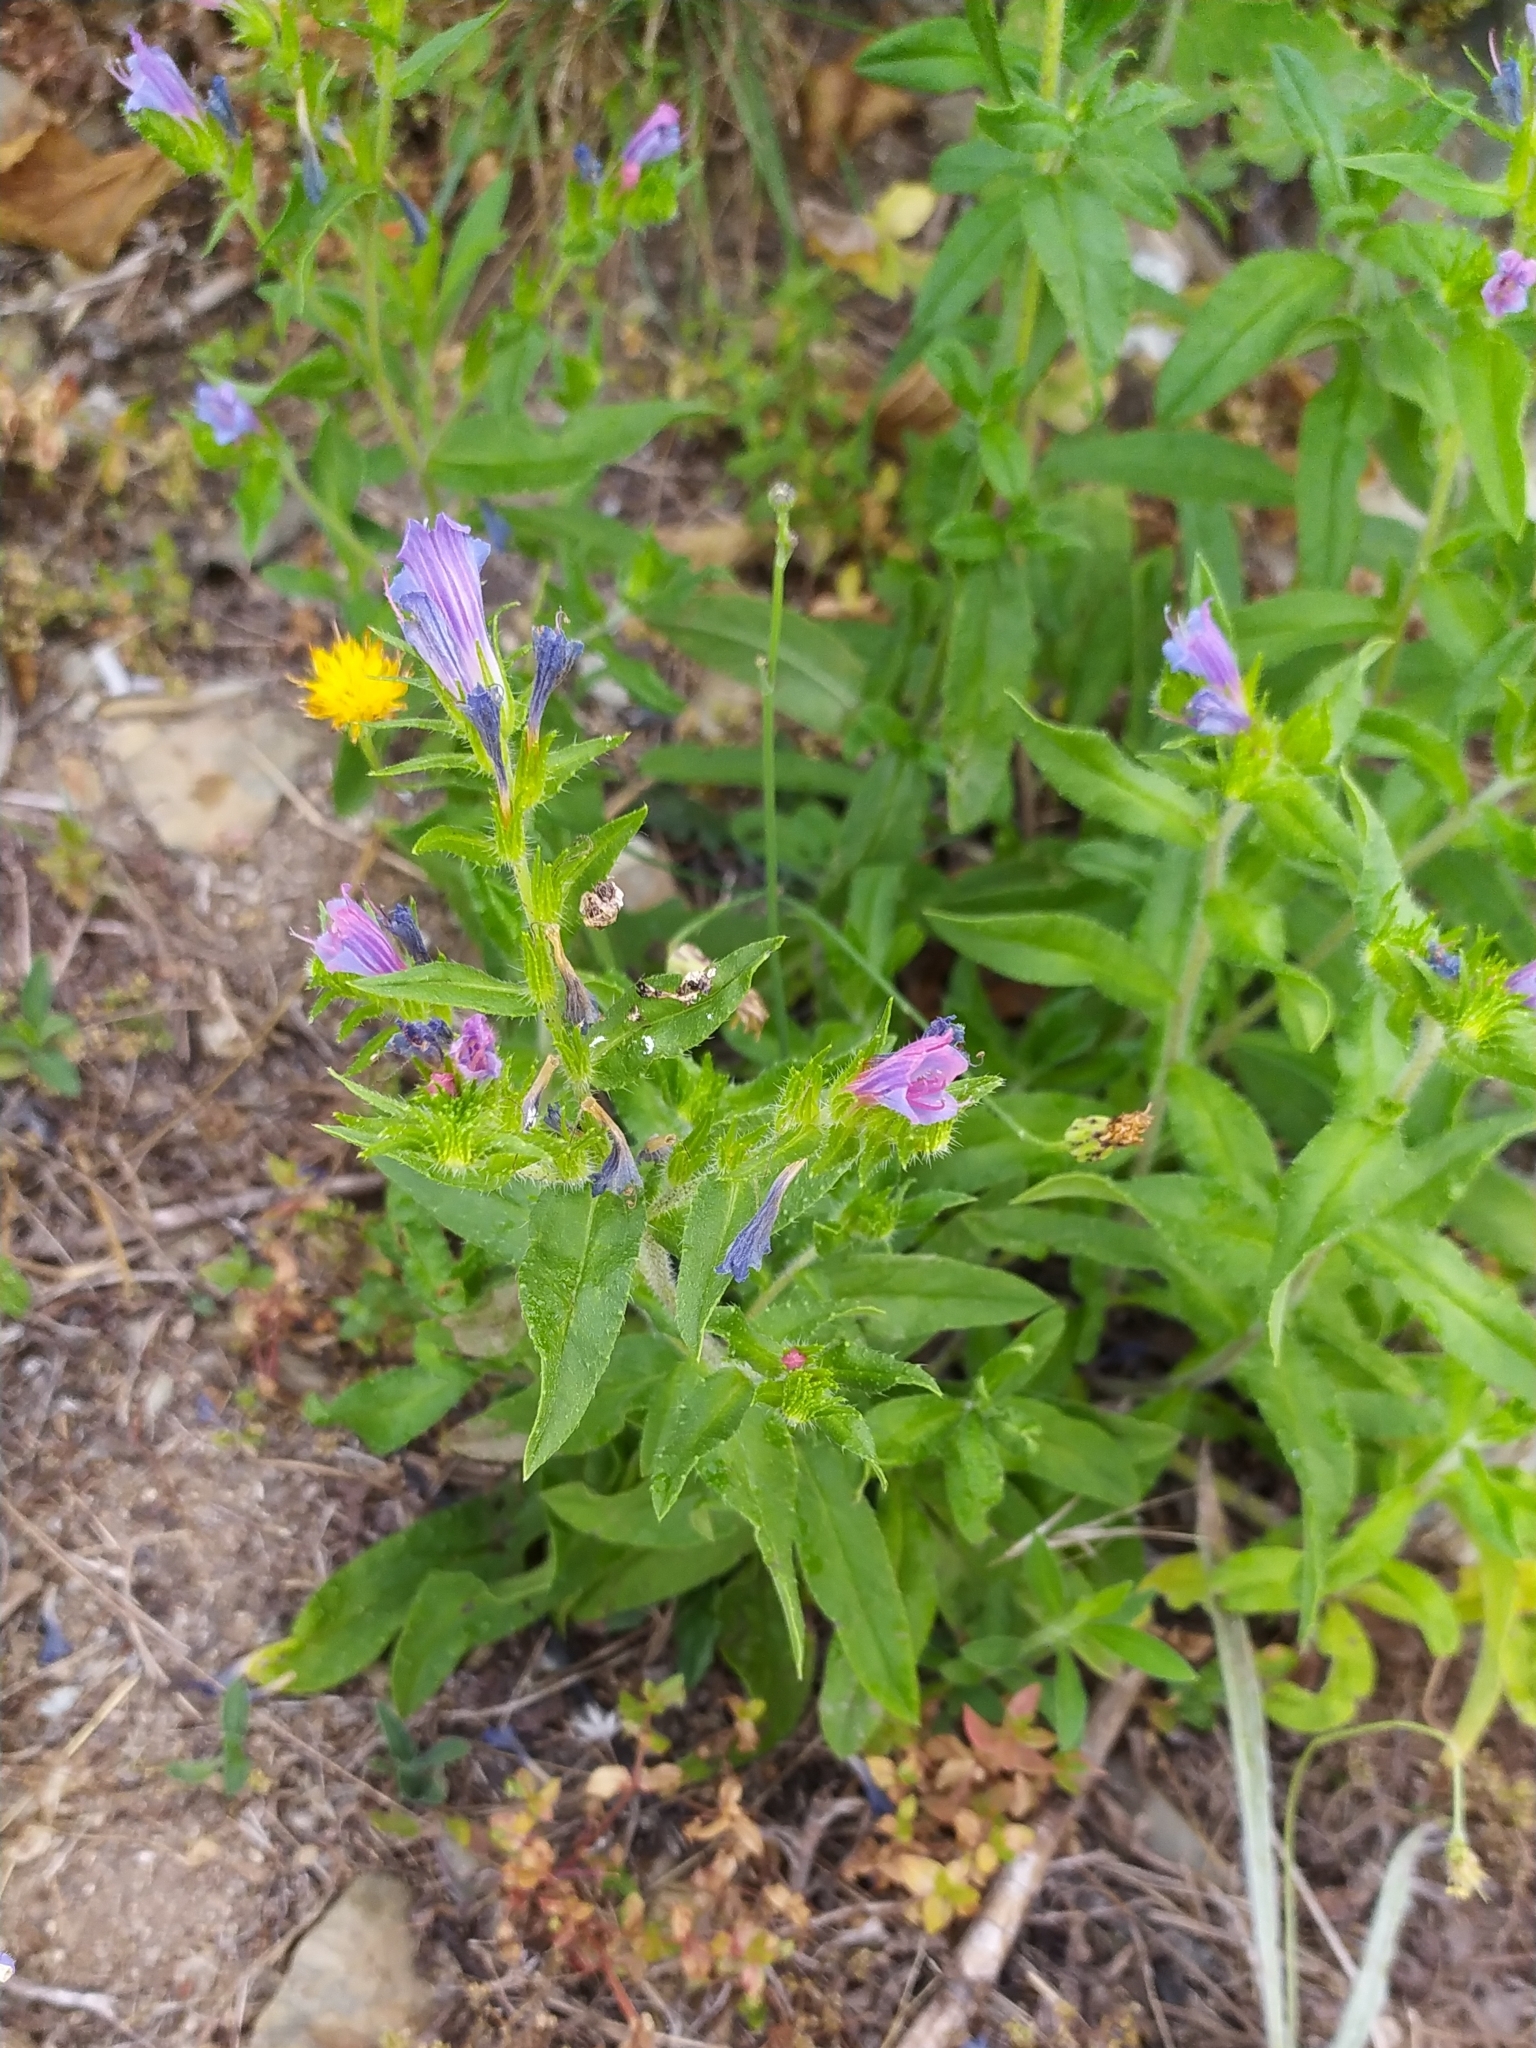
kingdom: Plantae
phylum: Tracheophyta
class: Magnoliopsida
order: Boraginales
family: Boraginaceae
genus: Echium
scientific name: Echium rosulatum
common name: Lax viper's-bugloss
